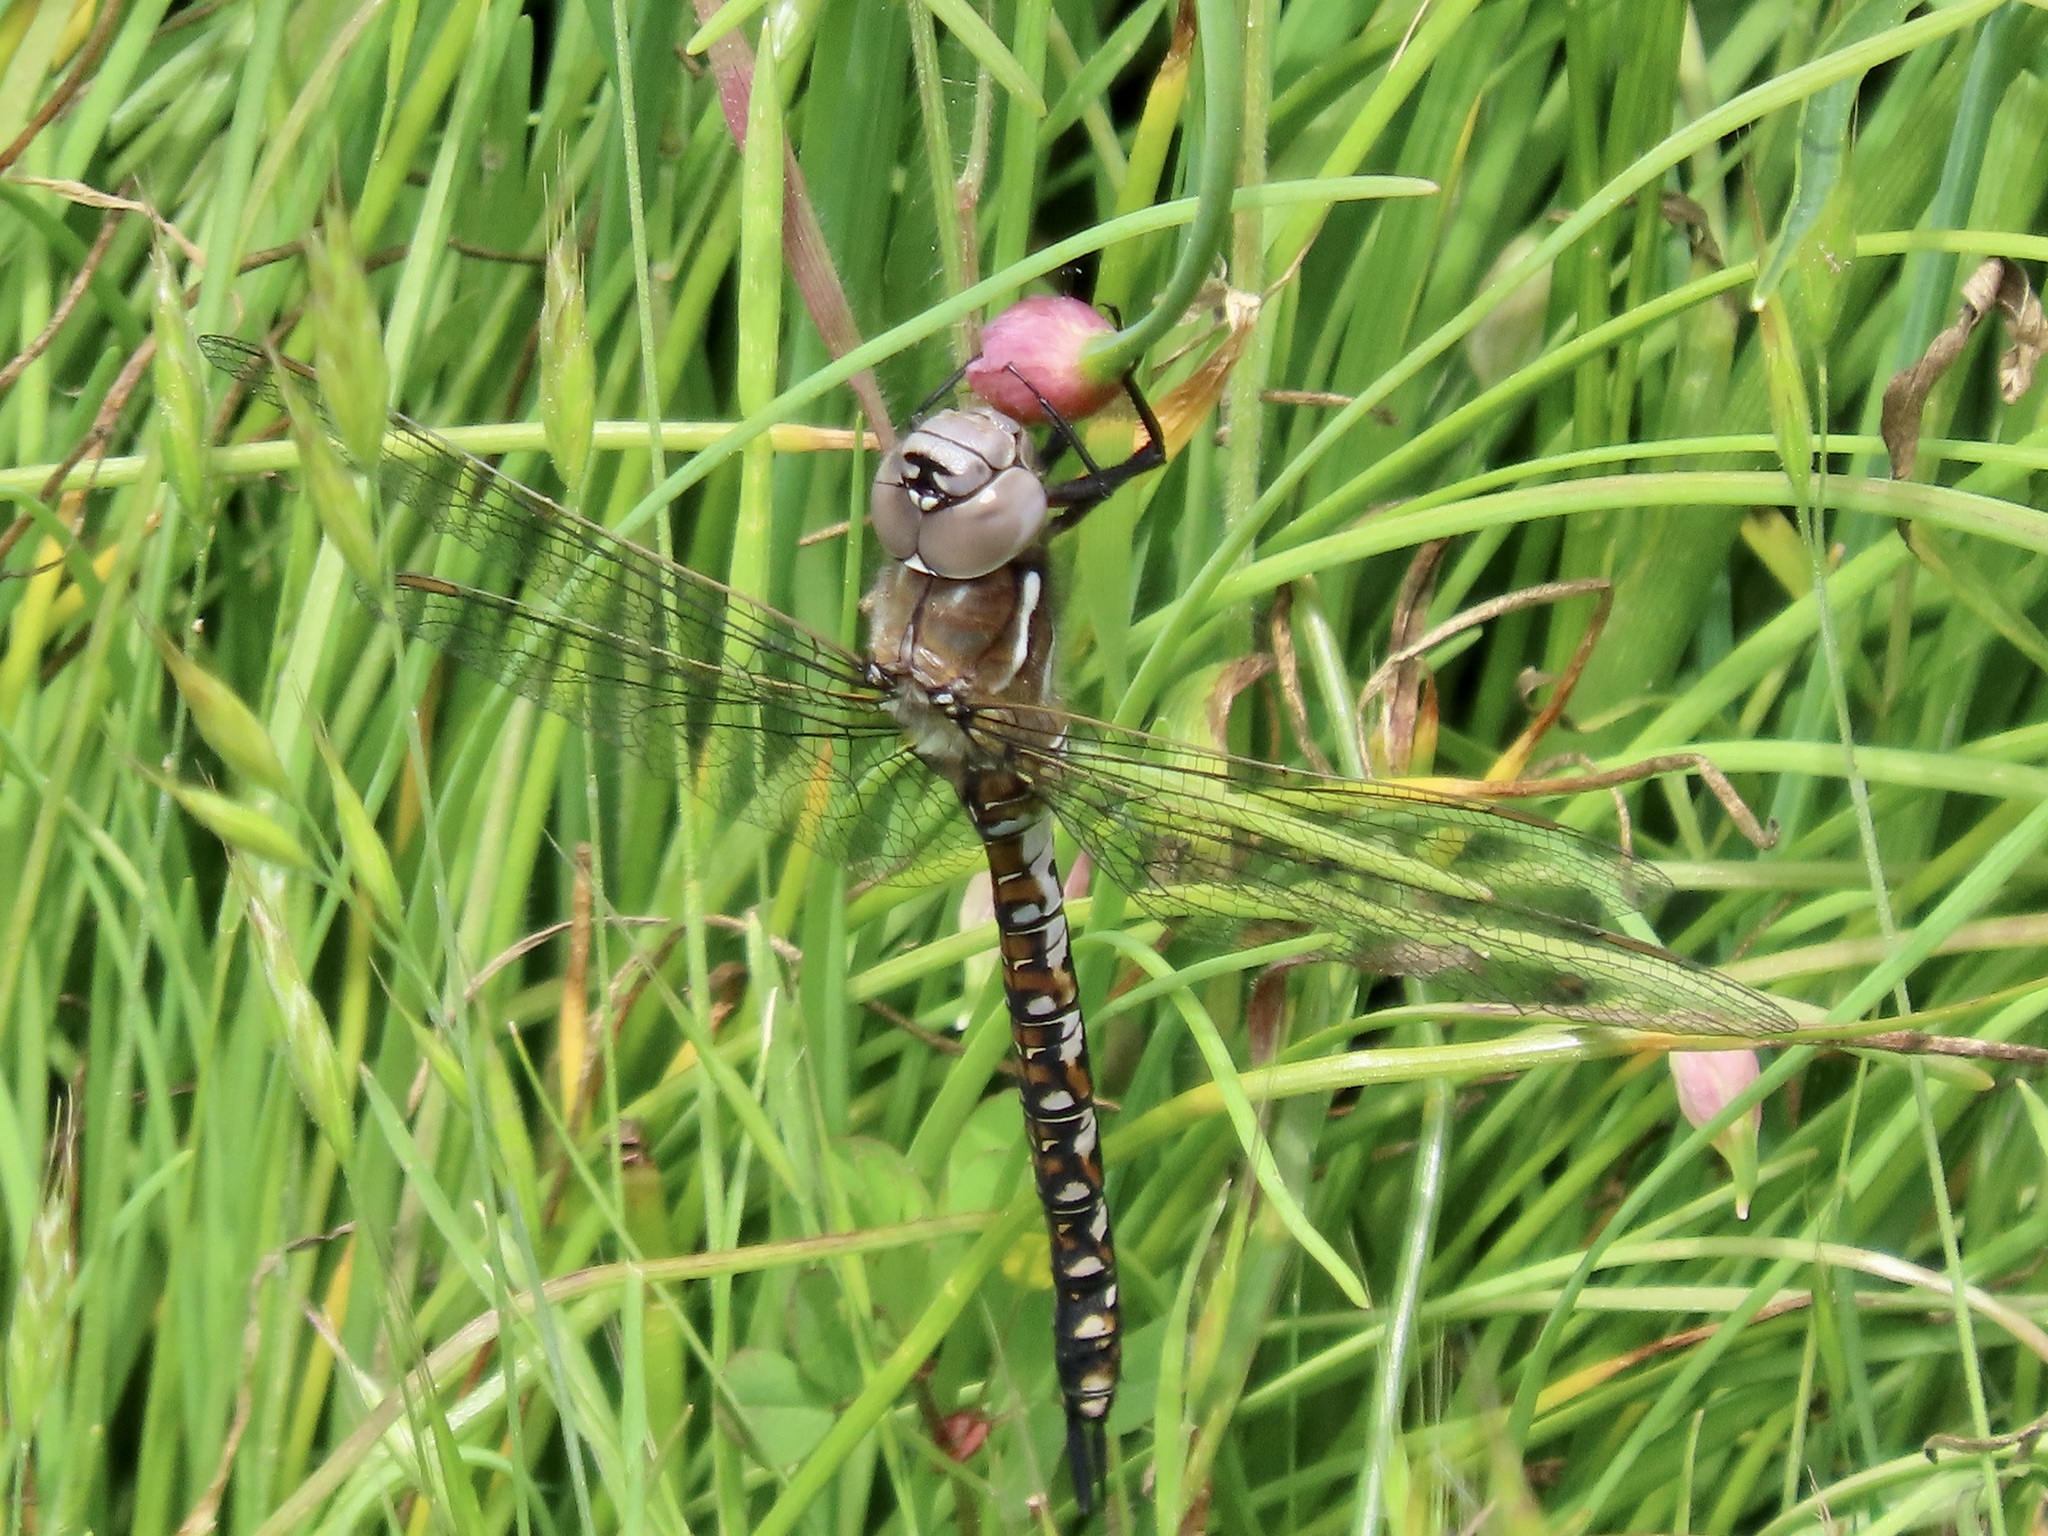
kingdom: Animalia
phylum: Arthropoda
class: Insecta
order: Odonata
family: Aeshnidae
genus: Rhionaeschna
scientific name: Rhionaeschna californica
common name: California darner
